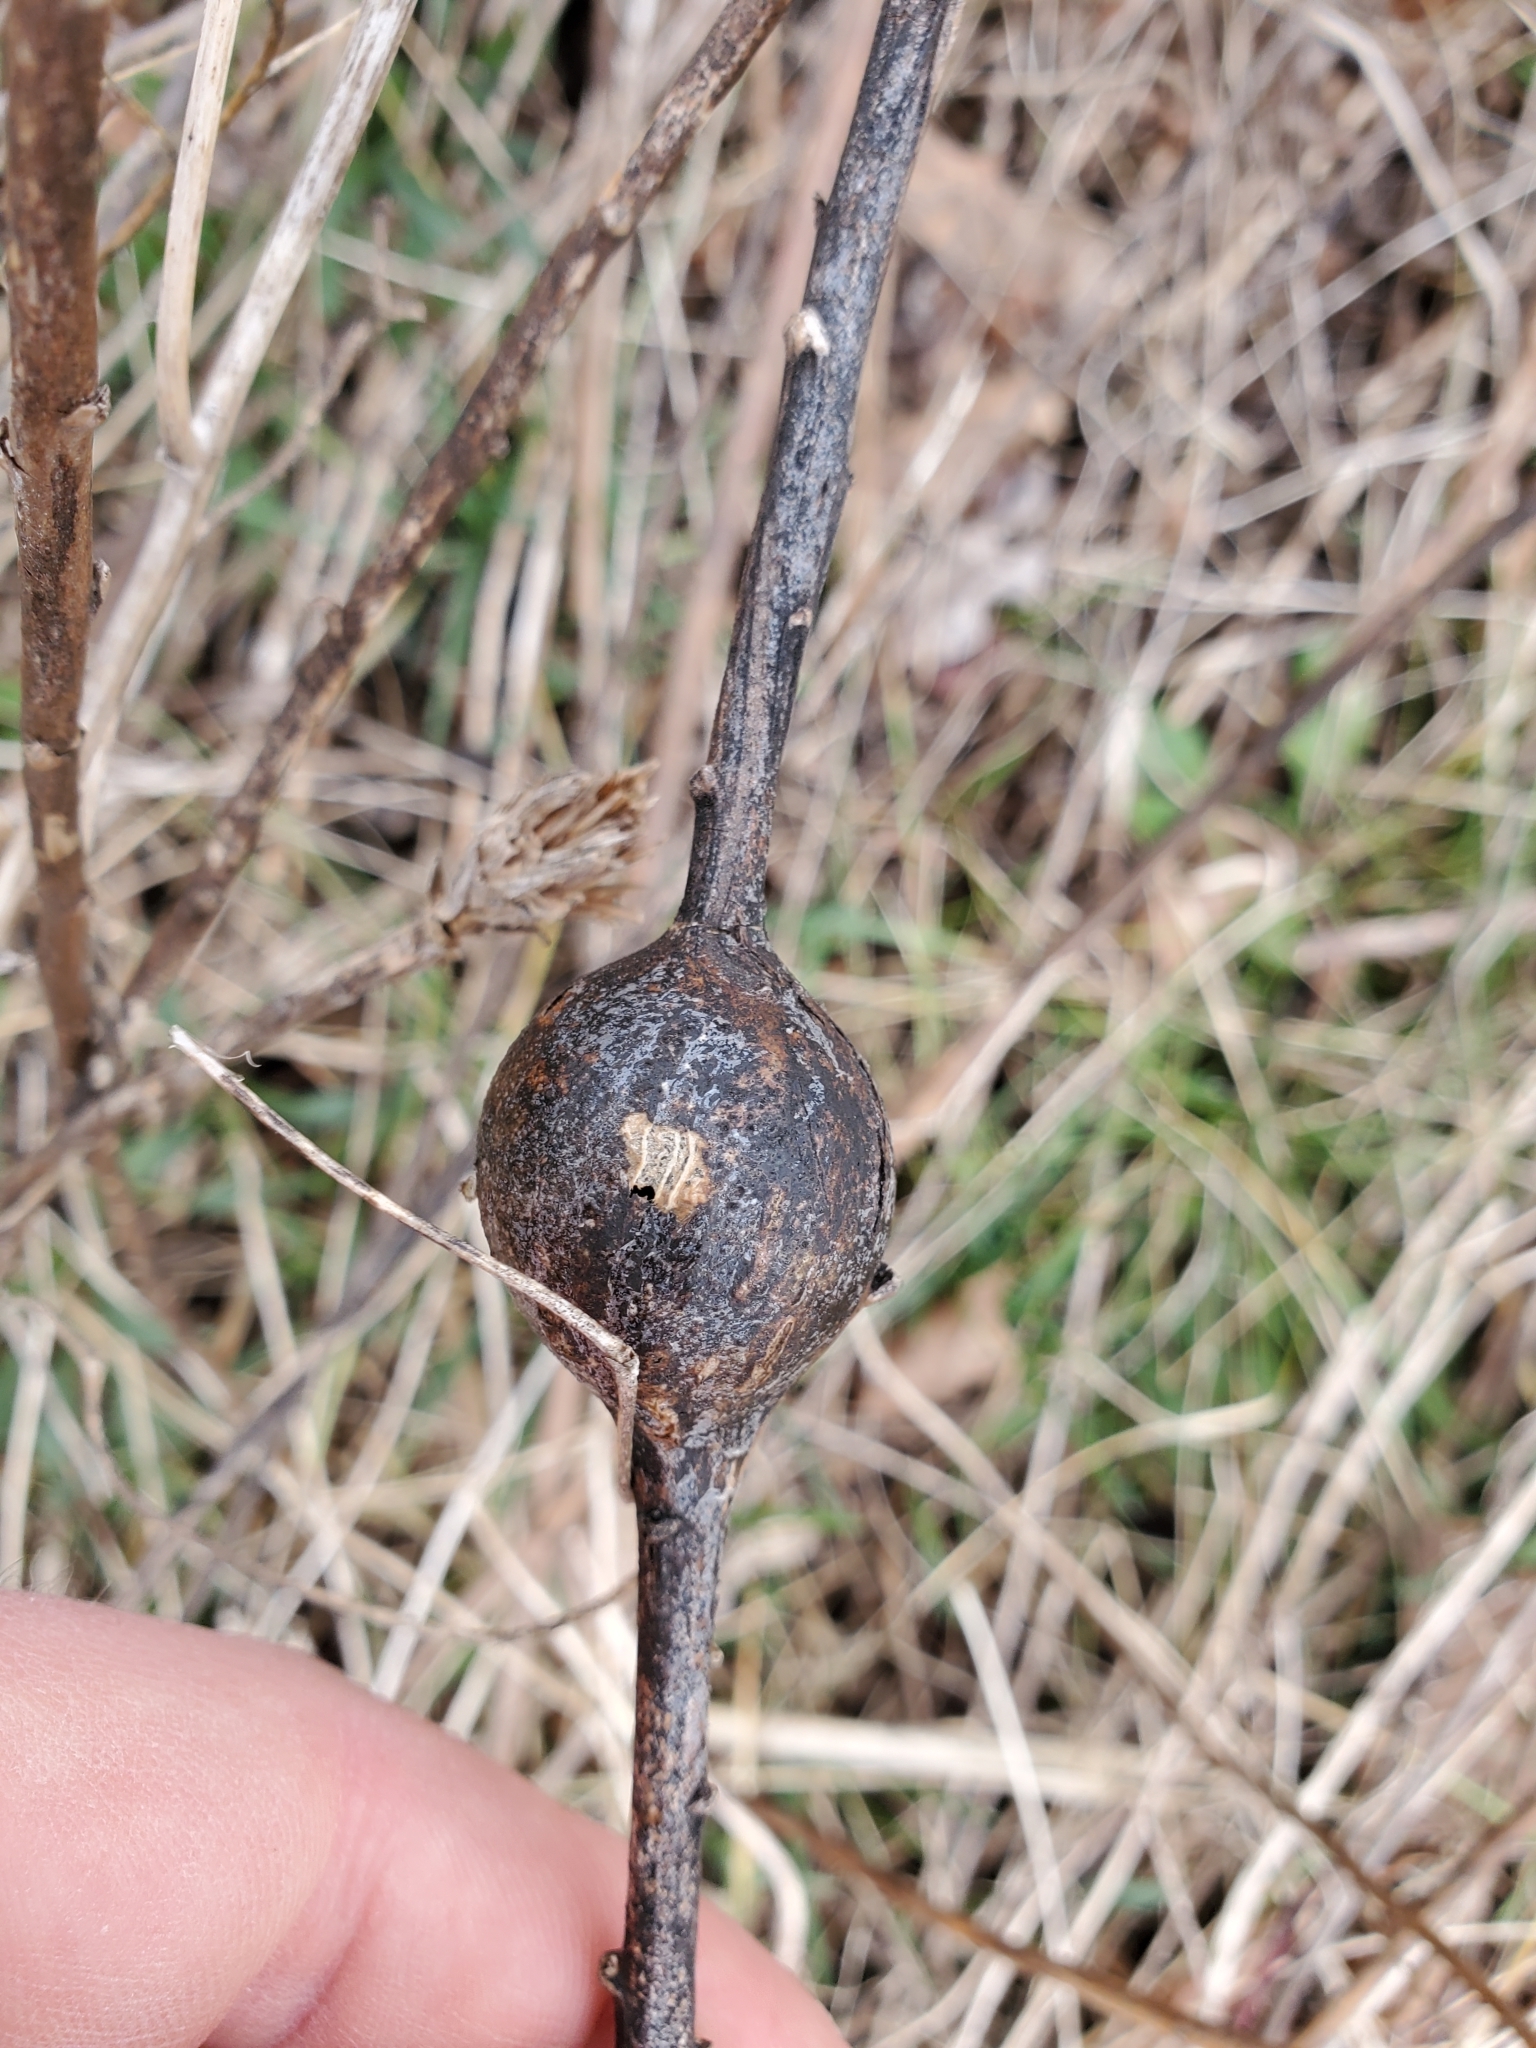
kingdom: Animalia
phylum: Arthropoda
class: Insecta
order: Diptera
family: Tephritidae
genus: Eurosta
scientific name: Eurosta solidaginis
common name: Goldenrod gall fly
